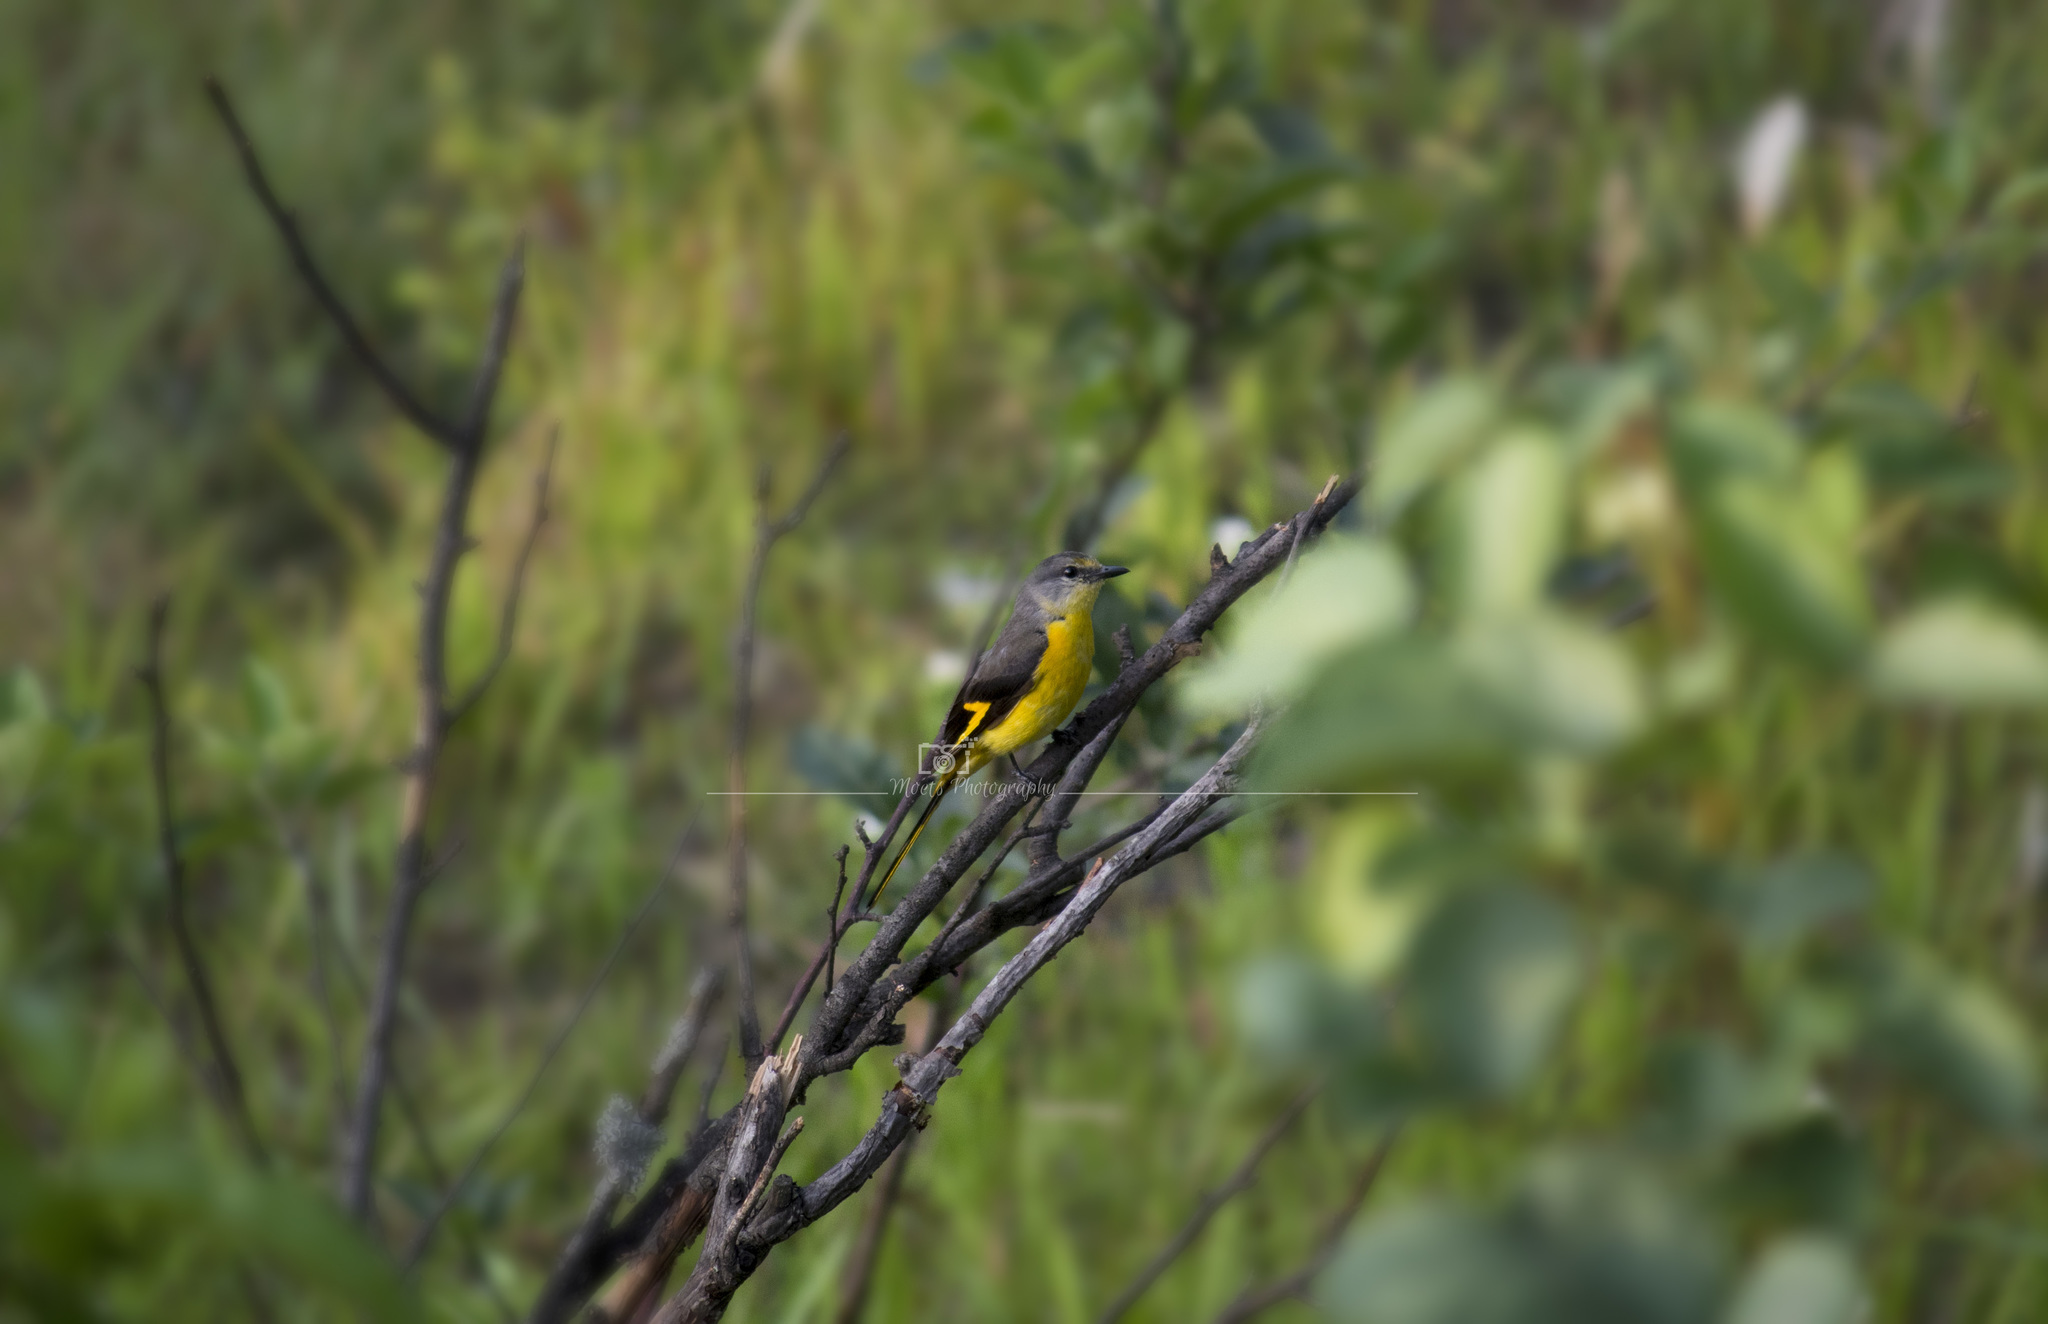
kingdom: Animalia
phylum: Chordata
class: Aves
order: Passeriformes
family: Campephagidae
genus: Pericrocotus
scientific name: Pericrocotus ethologus
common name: Long-tailed minivet
